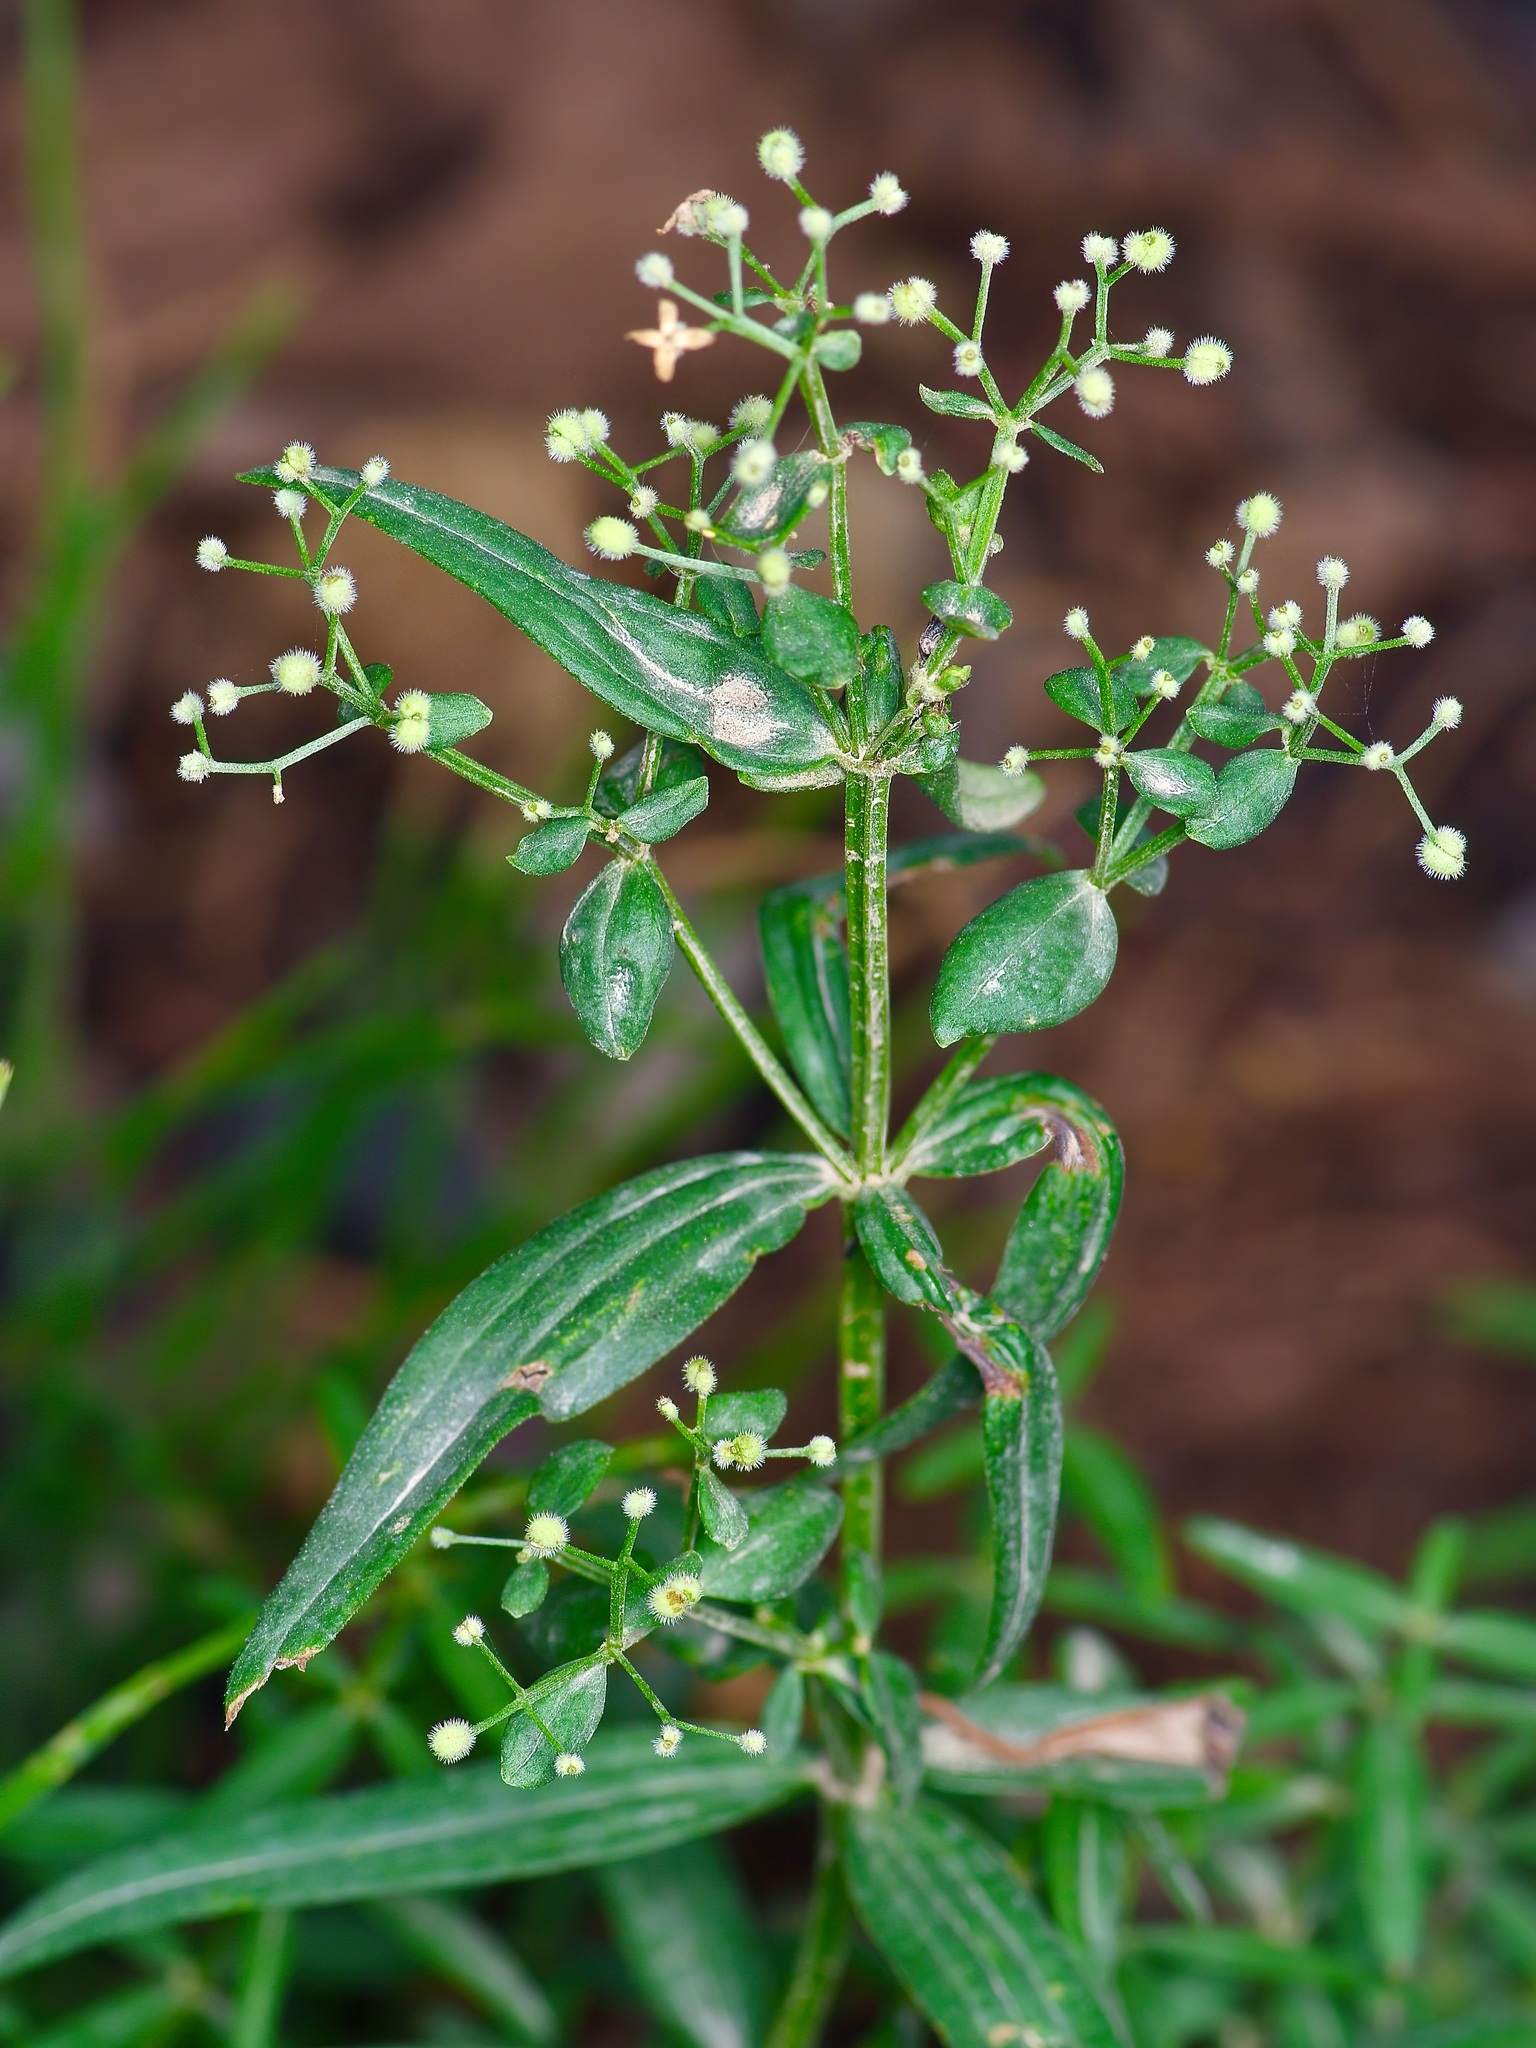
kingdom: Plantae
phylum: Tracheophyta
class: Magnoliopsida
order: Gentianales
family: Rubiaceae
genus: Galium
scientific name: Galium boreale
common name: Northern bedstraw
